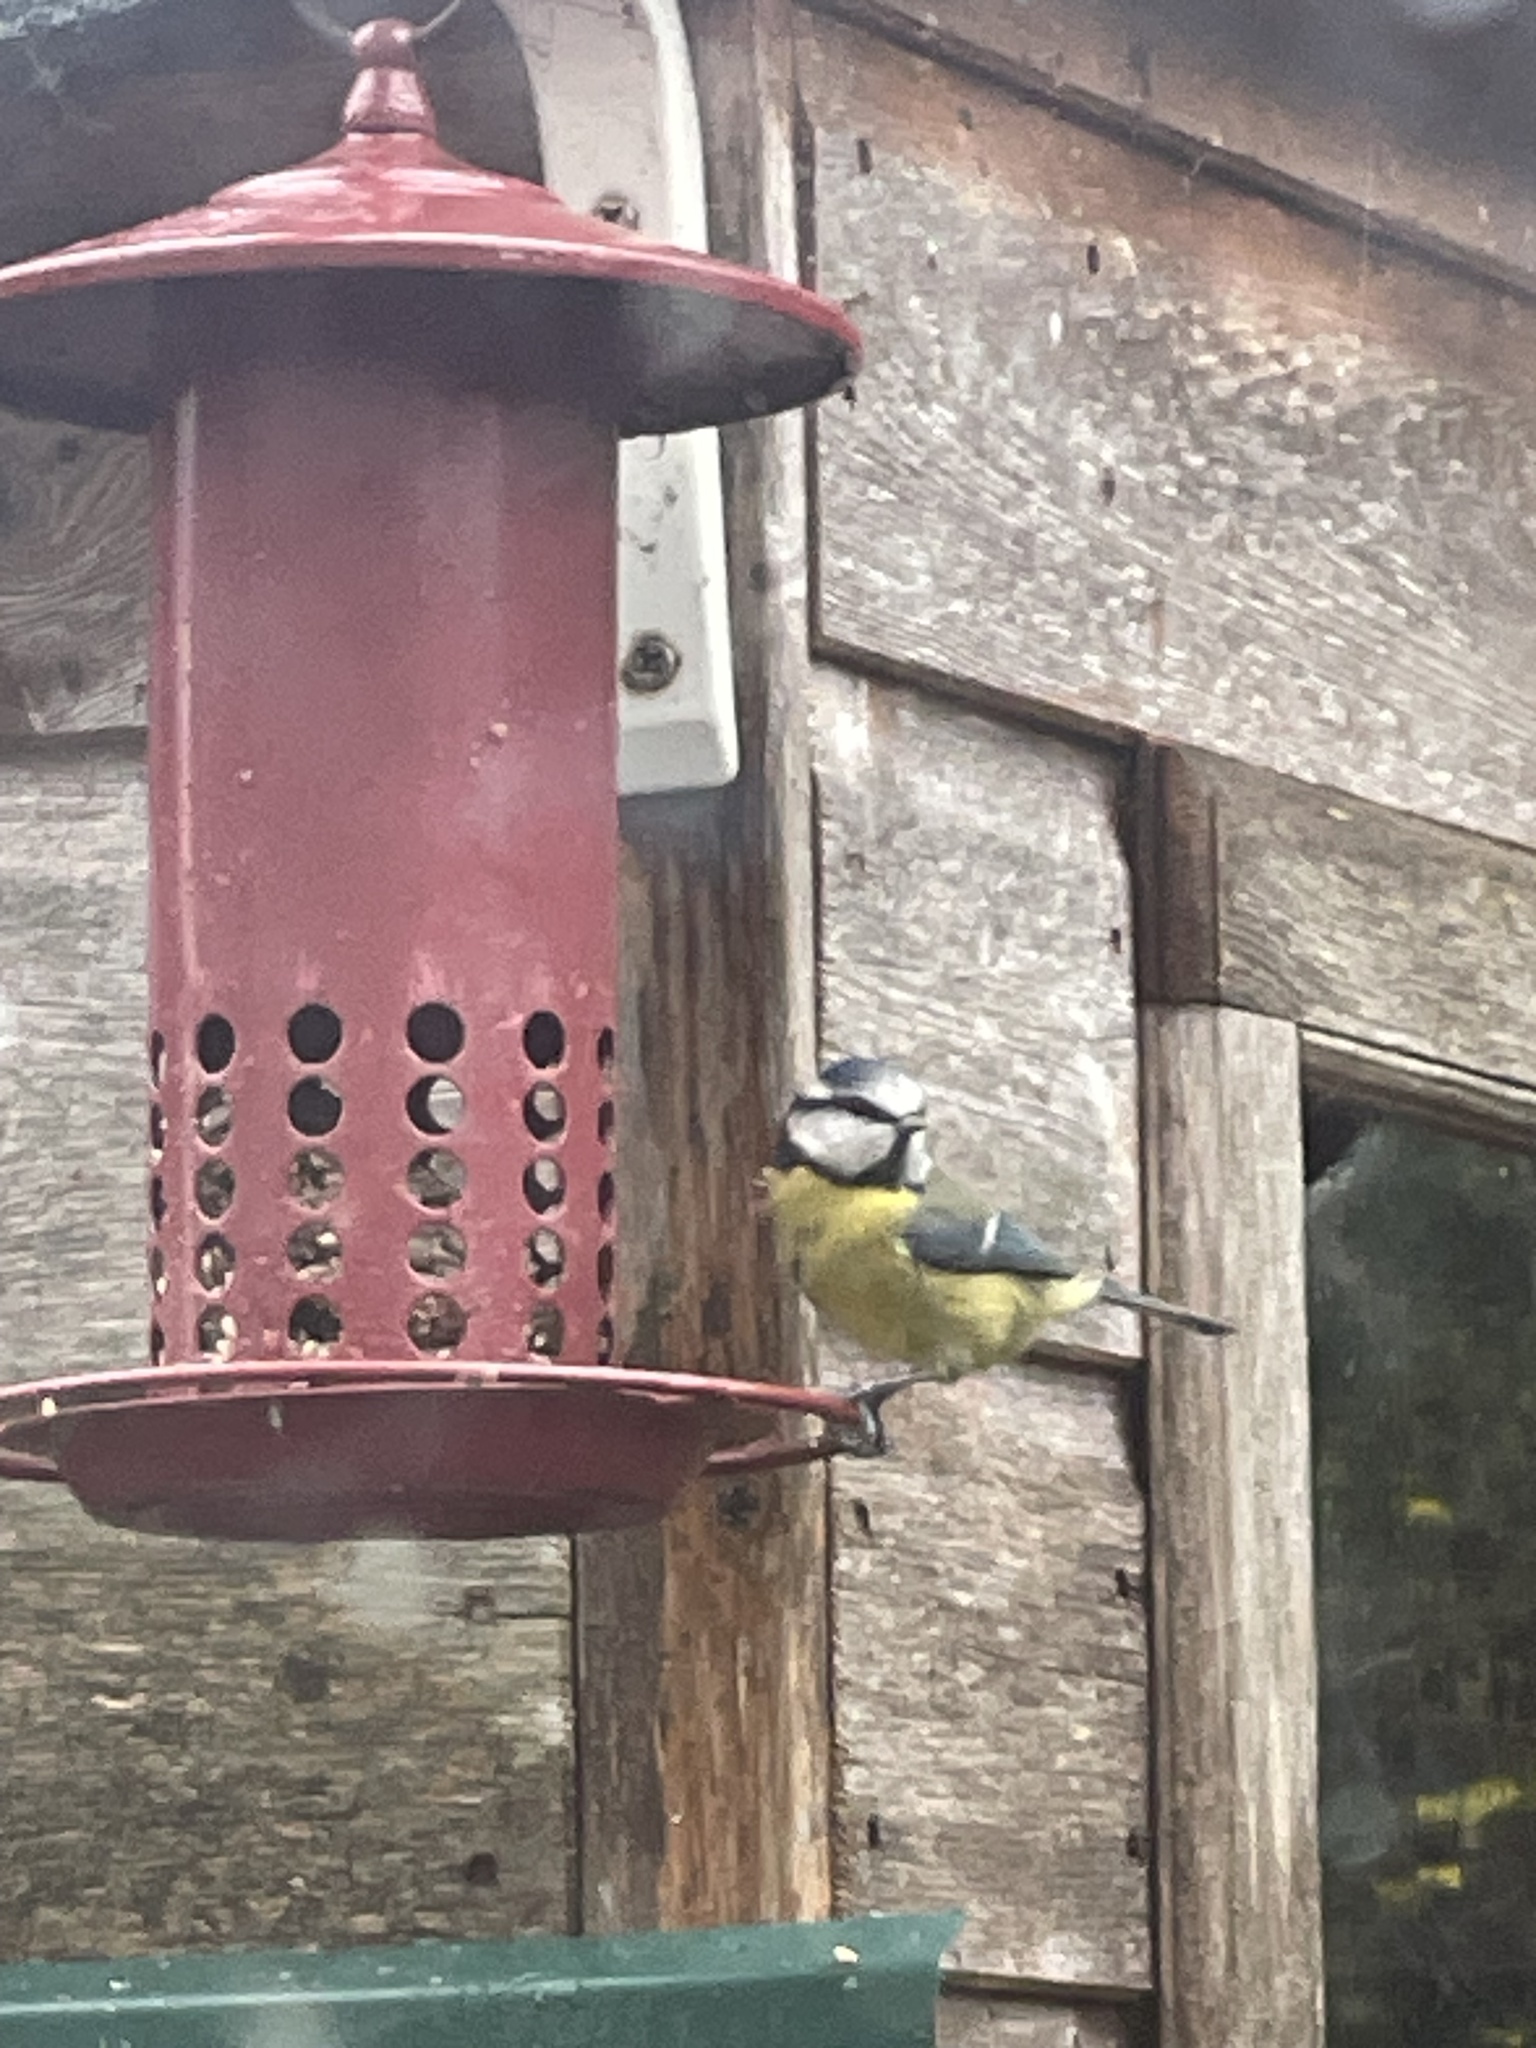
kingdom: Animalia
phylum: Chordata
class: Aves
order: Passeriformes
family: Paridae
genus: Cyanistes
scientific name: Cyanistes caeruleus
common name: Eurasian blue tit
